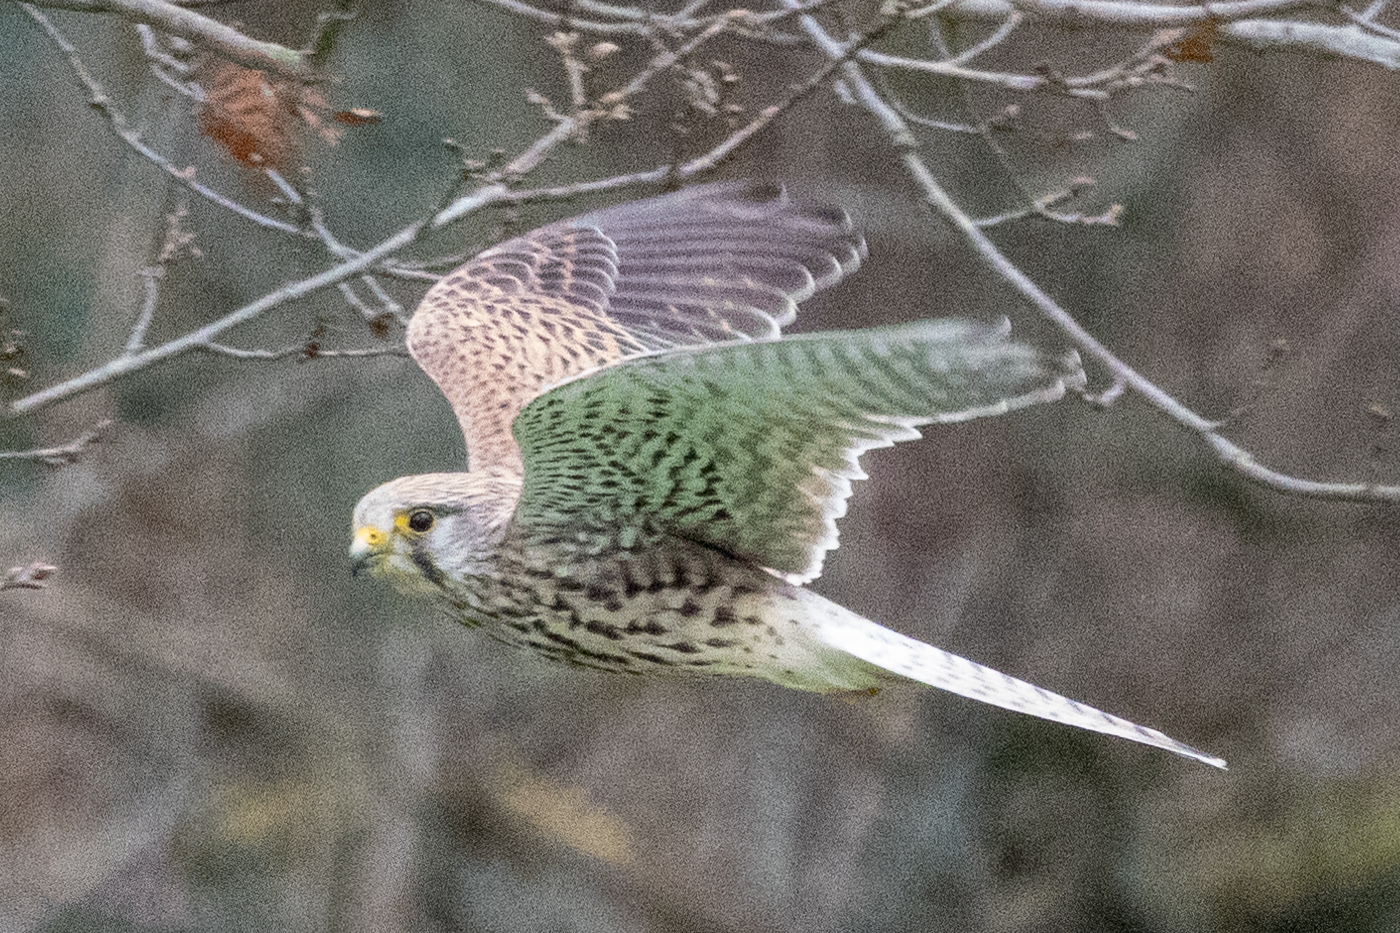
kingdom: Animalia
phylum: Chordata
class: Aves
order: Falconiformes
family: Falconidae
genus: Falco
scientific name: Falco tinnunculus
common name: Common kestrel
